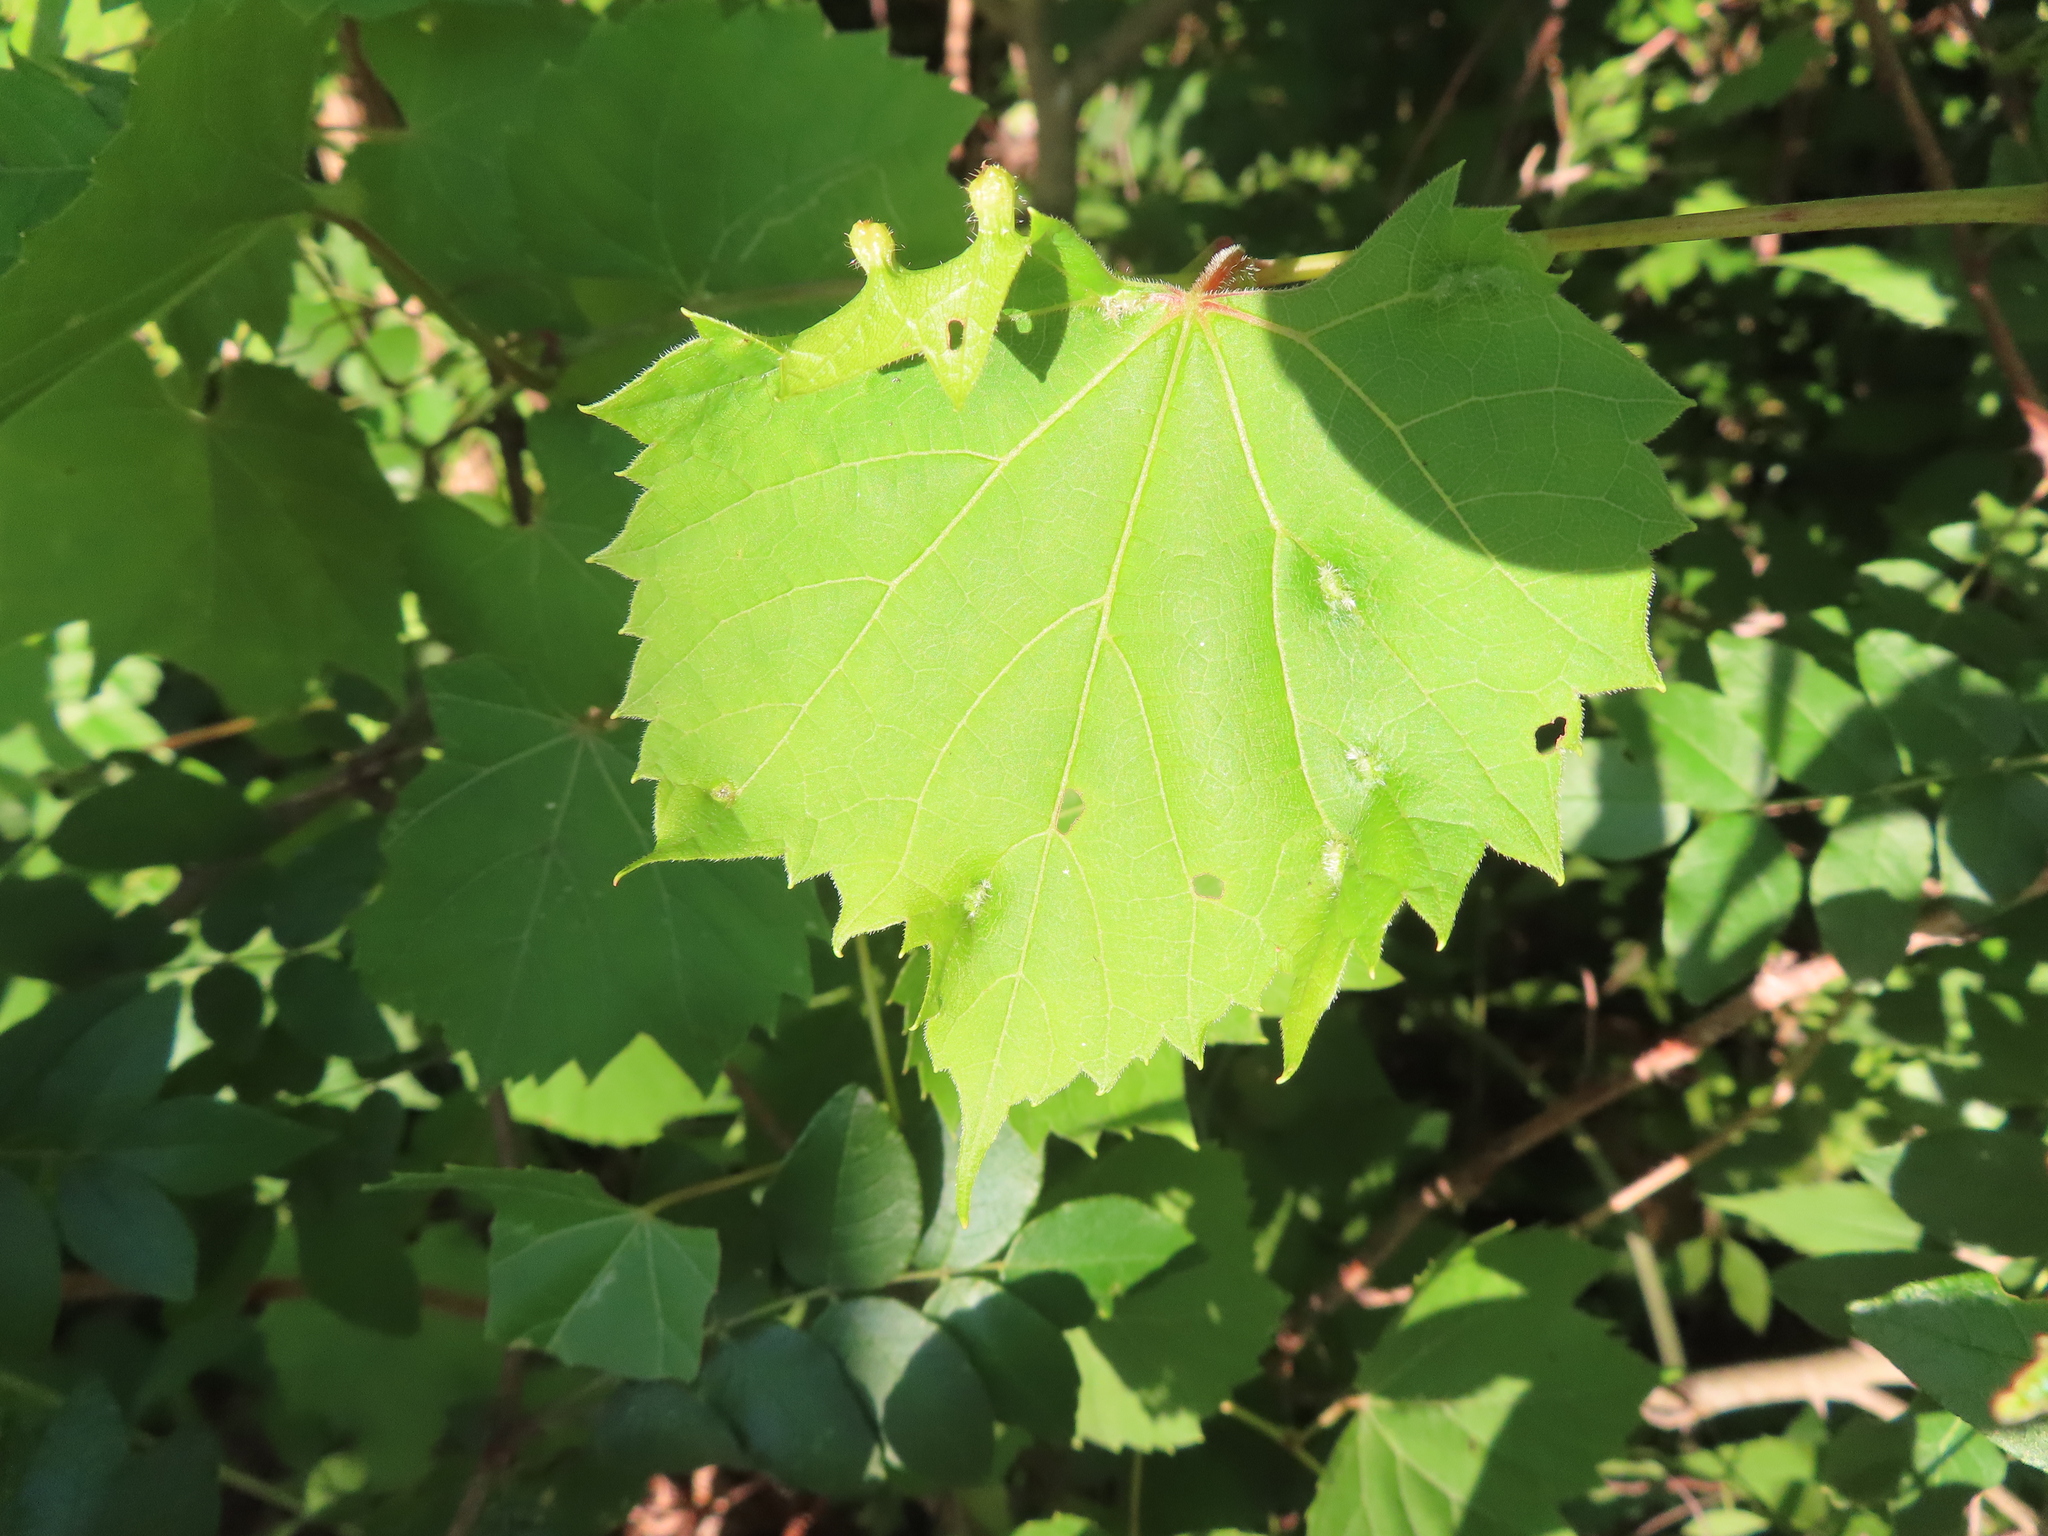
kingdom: Plantae
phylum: Tracheophyta
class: Magnoliopsida
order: Vitales
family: Vitaceae
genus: Vitis
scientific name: Vitis riparia
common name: Frost grape
